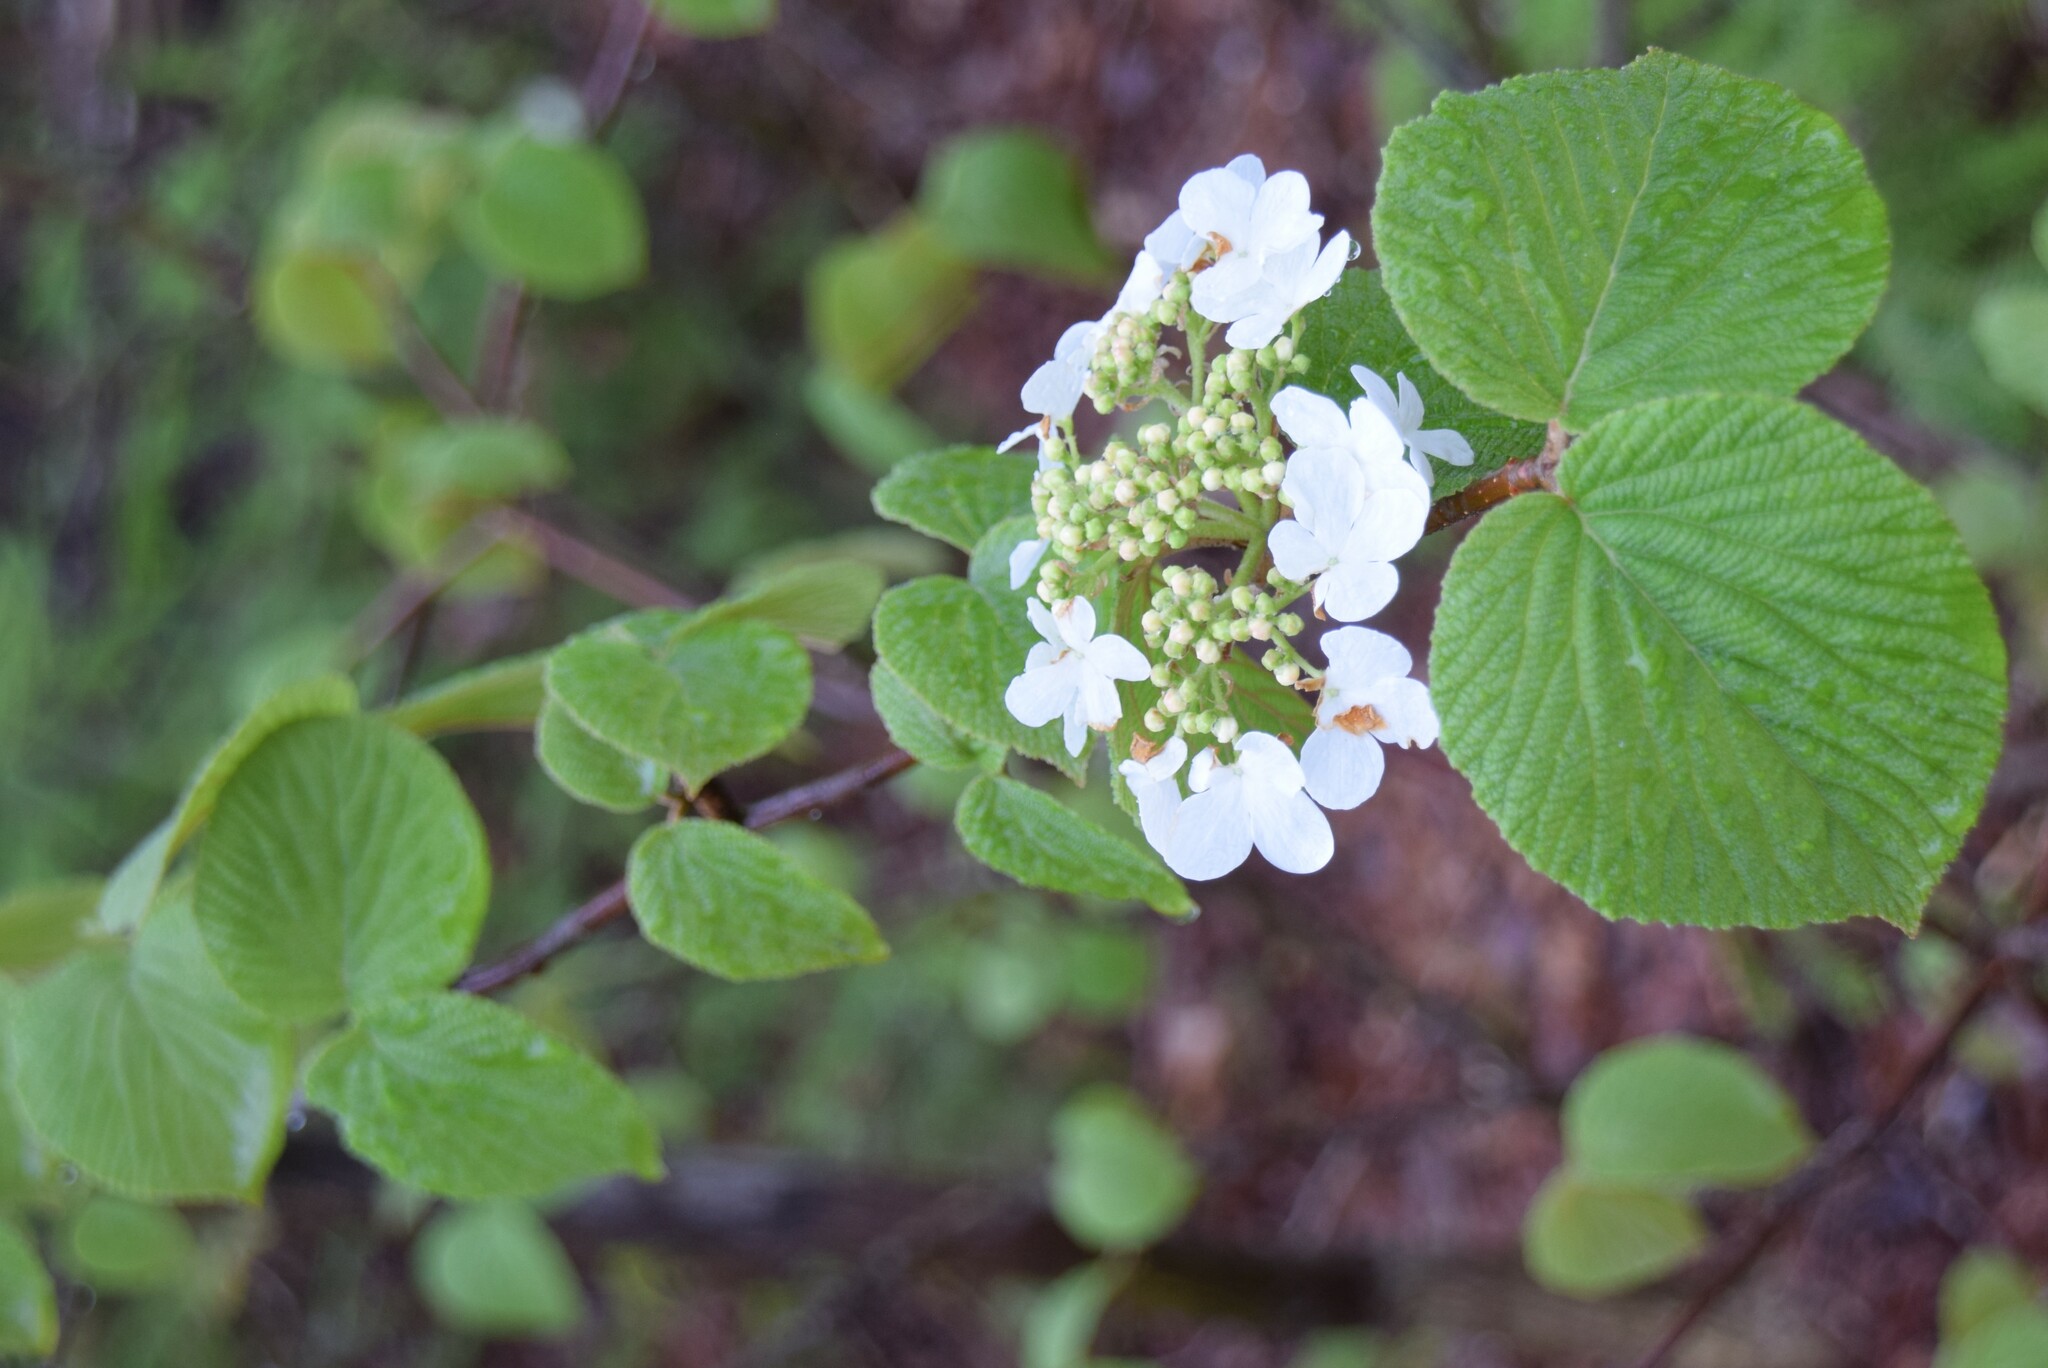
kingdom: Plantae
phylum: Tracheophyta
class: Magnoliopsida
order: Dipsacales
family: Viburnaceae
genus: Viburnum
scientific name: Viburnum lantanoides
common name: Hobblebush
